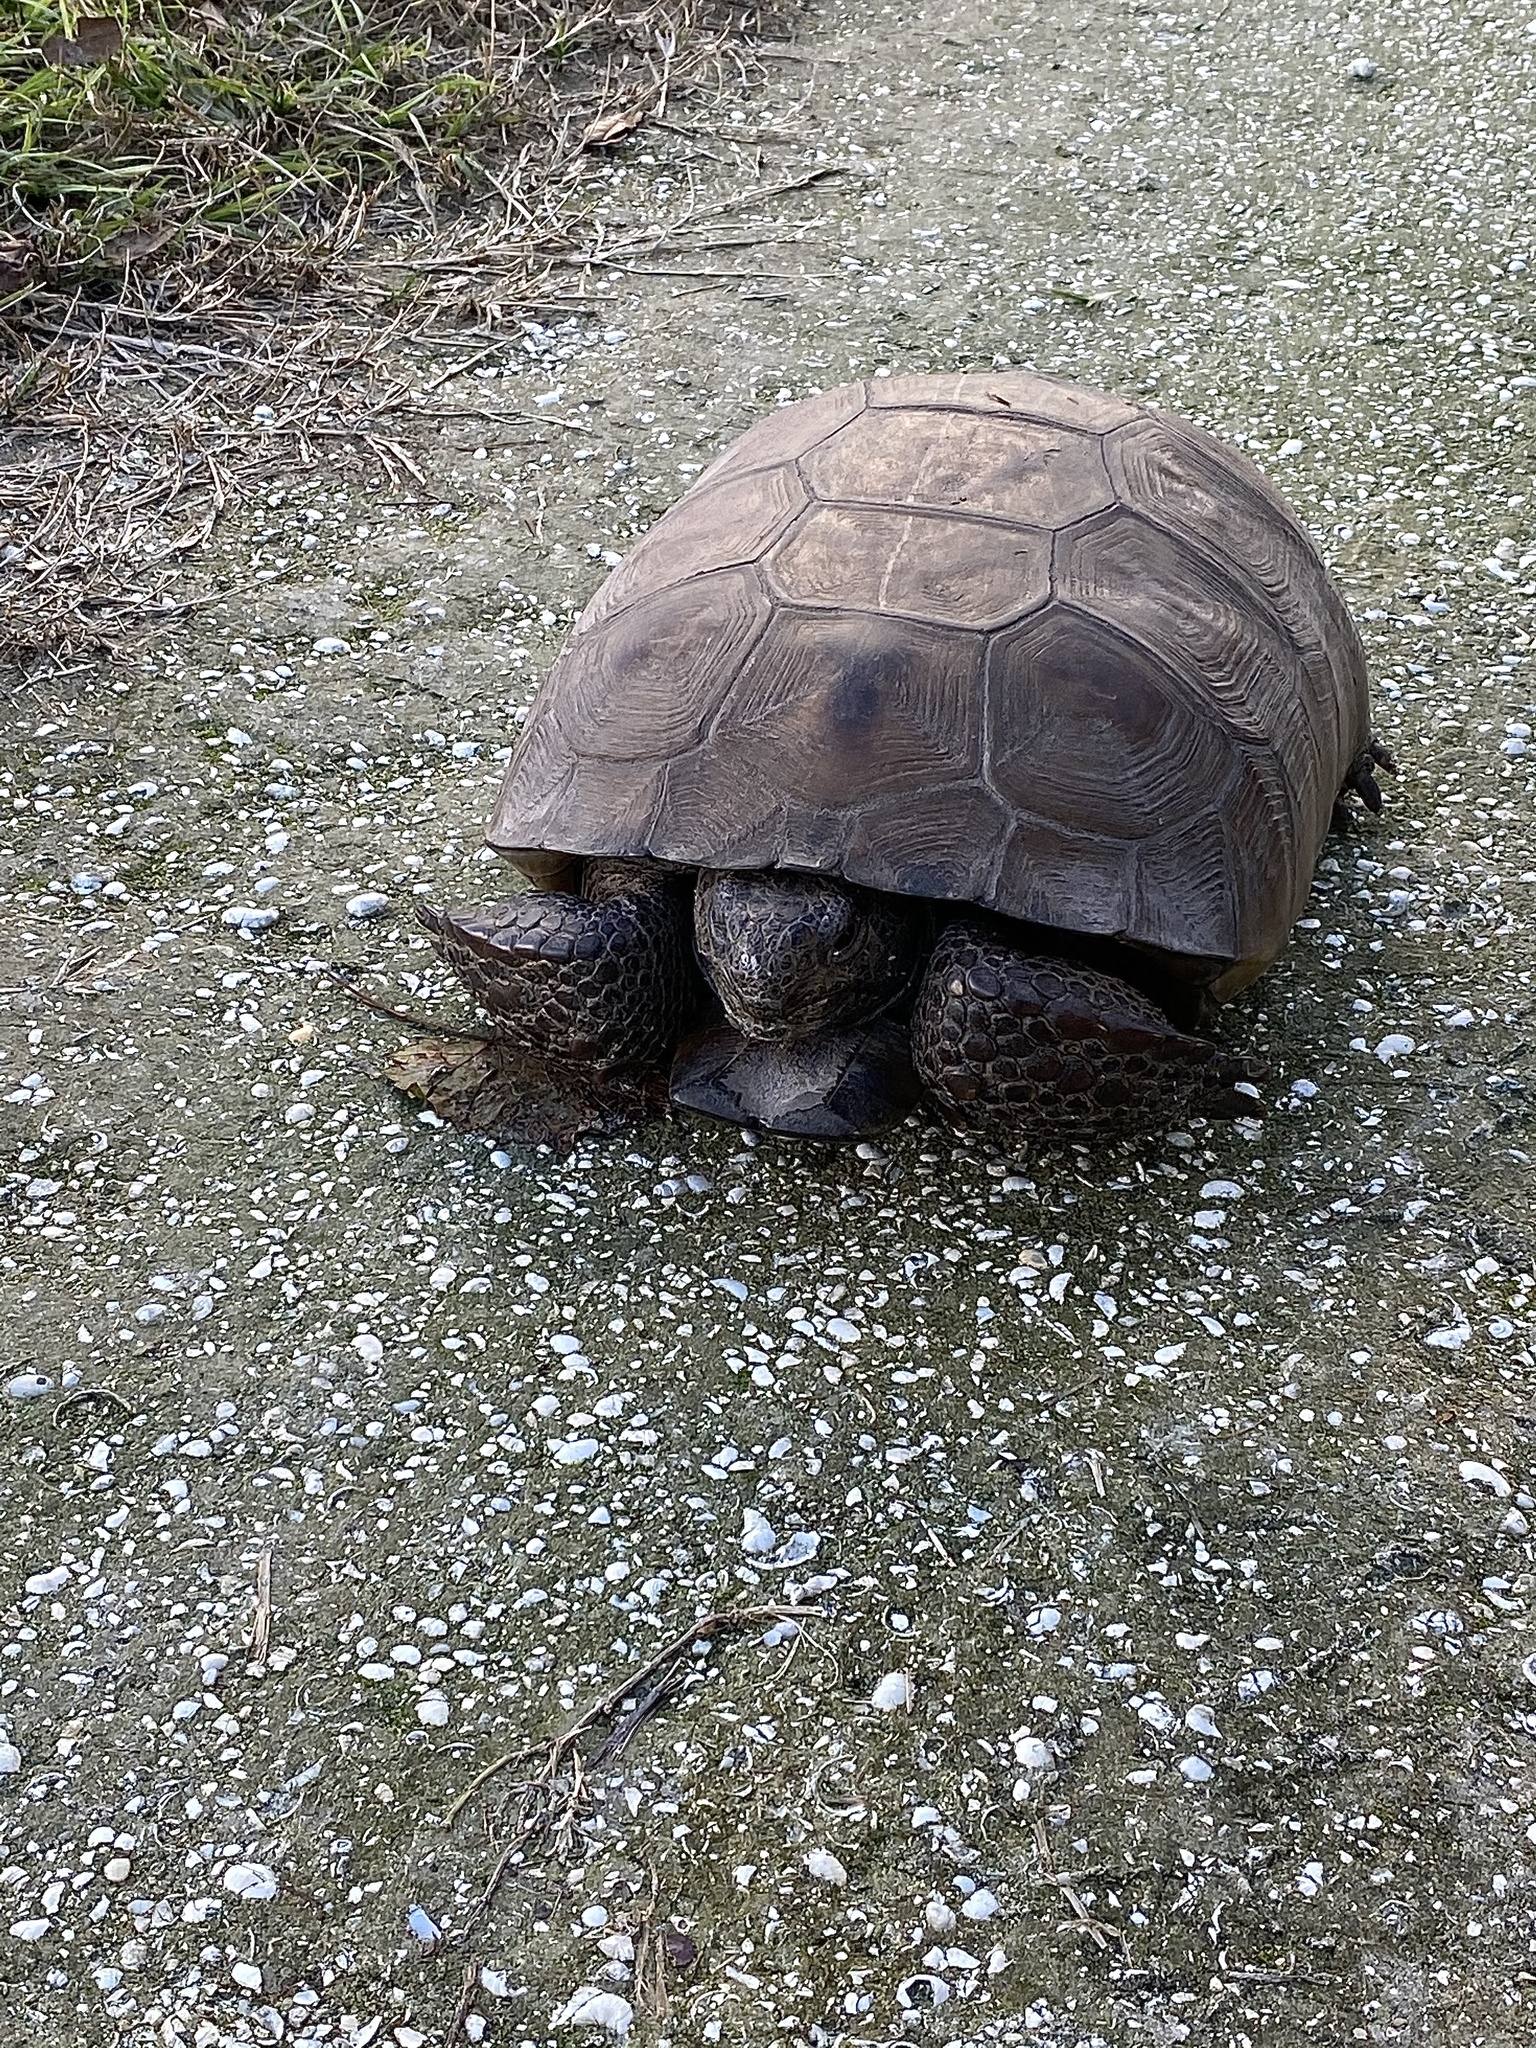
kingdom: Animalia
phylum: Chordata
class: Testudines
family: Testudinidae
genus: Gopherus
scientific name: Gopherus polyphemus
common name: Florida gopher tortoise
